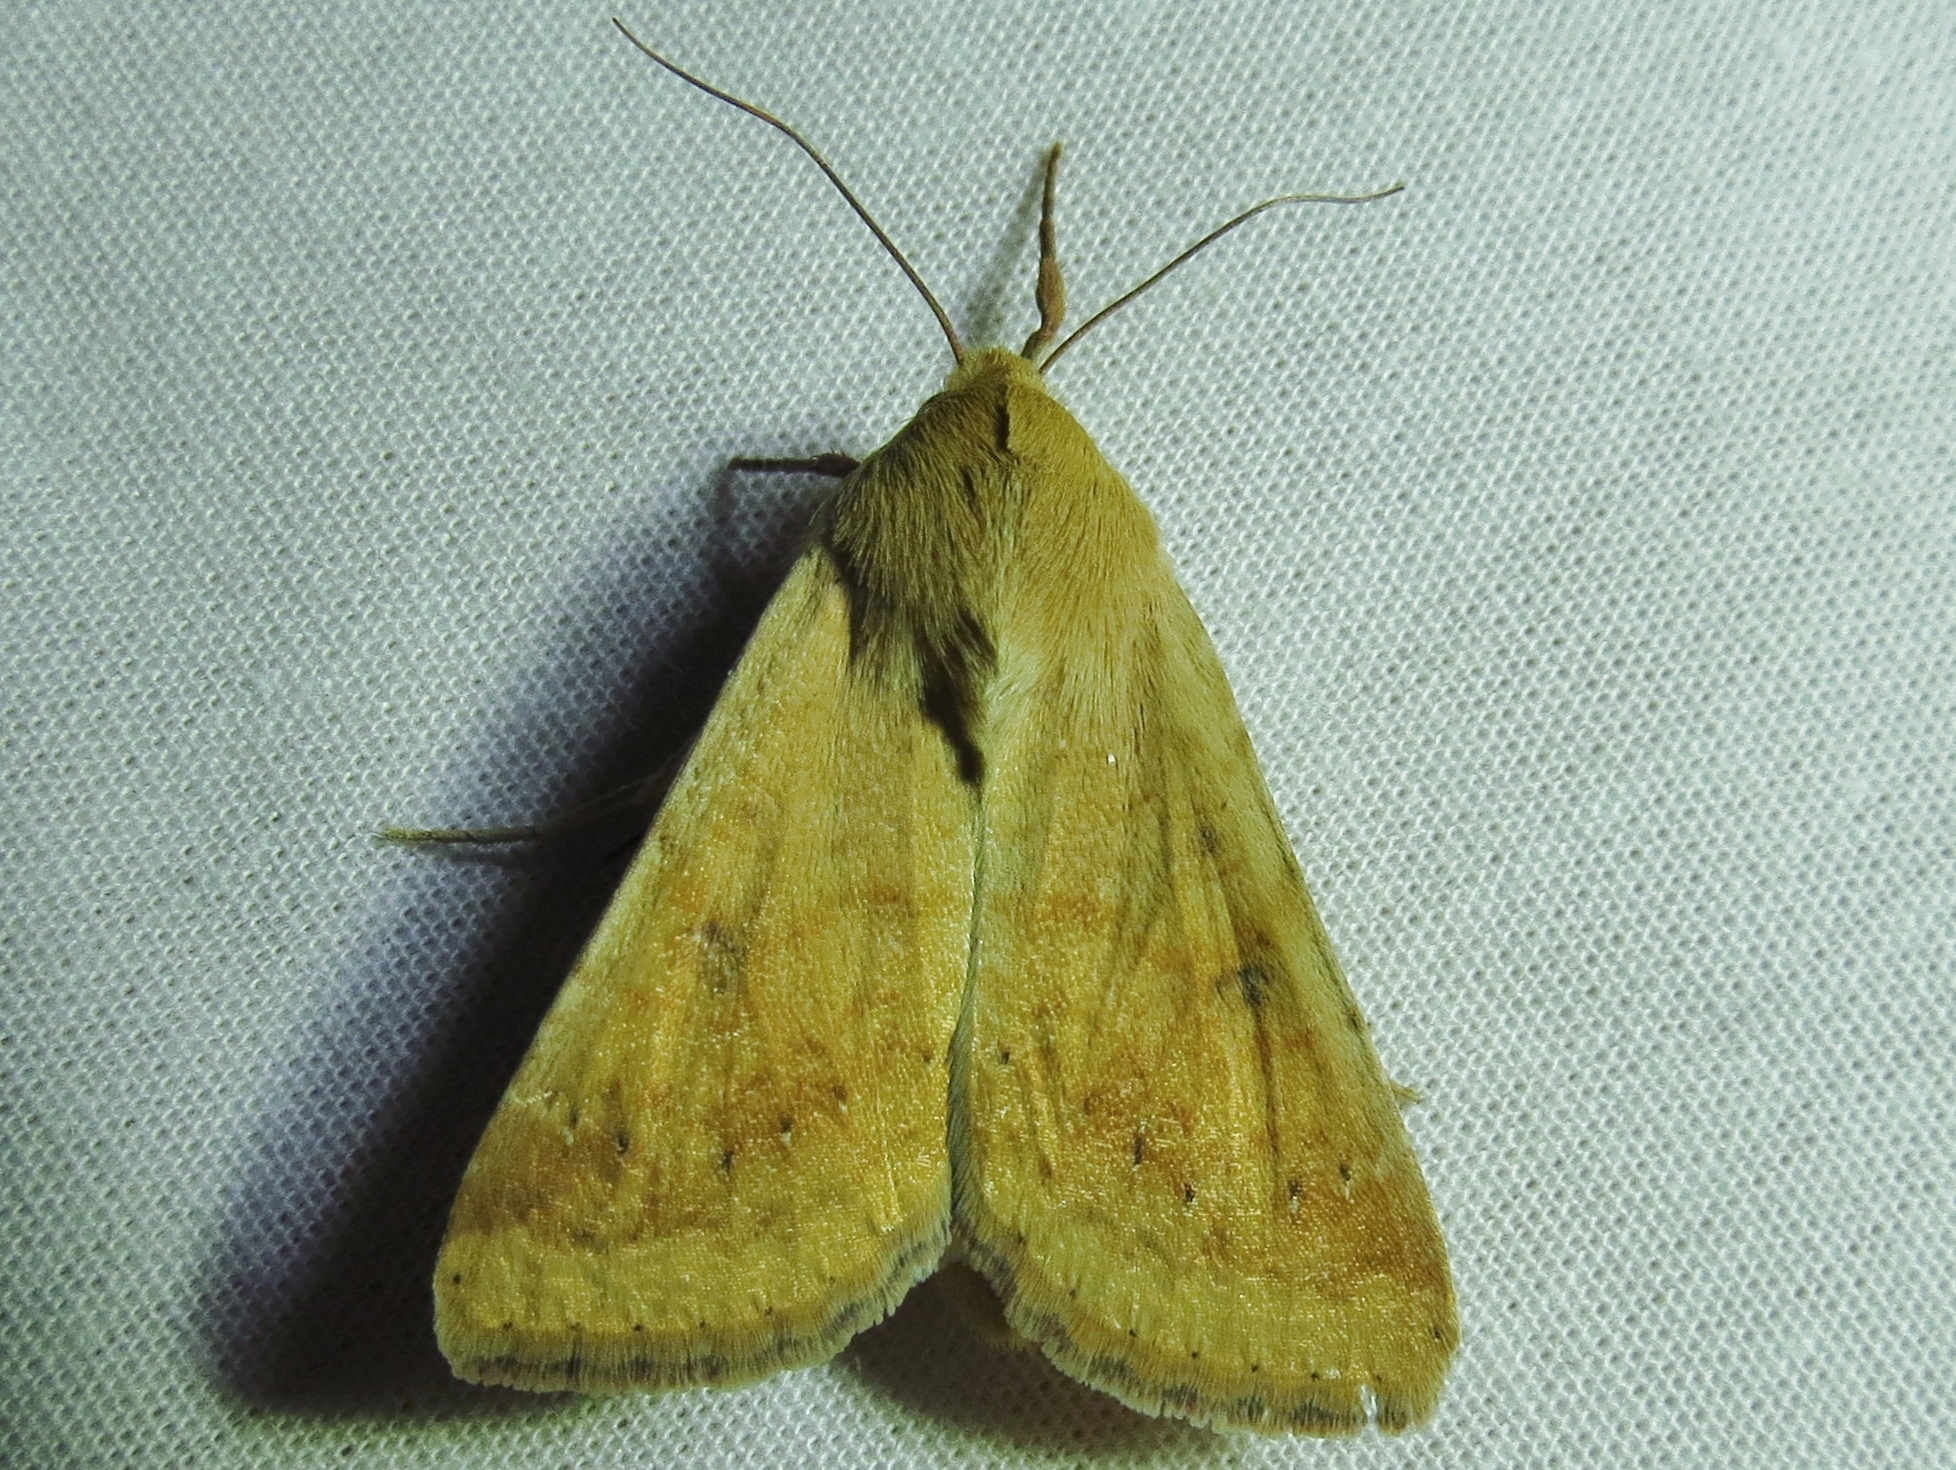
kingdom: Animalia
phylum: Arthropoda
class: Insecta
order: Lepidoptera
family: Noctuidae
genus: Helicoverpa
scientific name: Helicoverpa zea
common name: Bollworm
